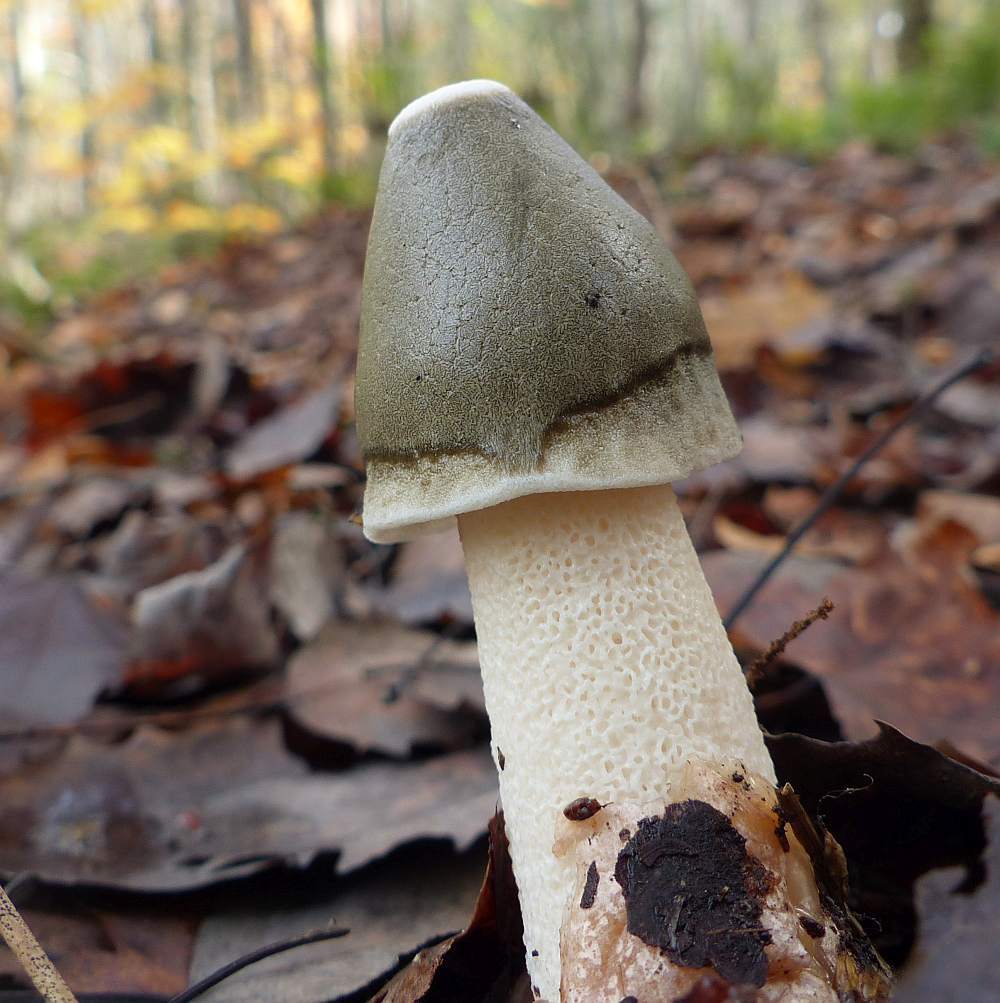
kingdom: Fungi
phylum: Basidiomycota
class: Agaricomycetes
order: Phallales
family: Phallaceae
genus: Phallus
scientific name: Phallus ravenelii
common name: Ravenel's stinkhorn
